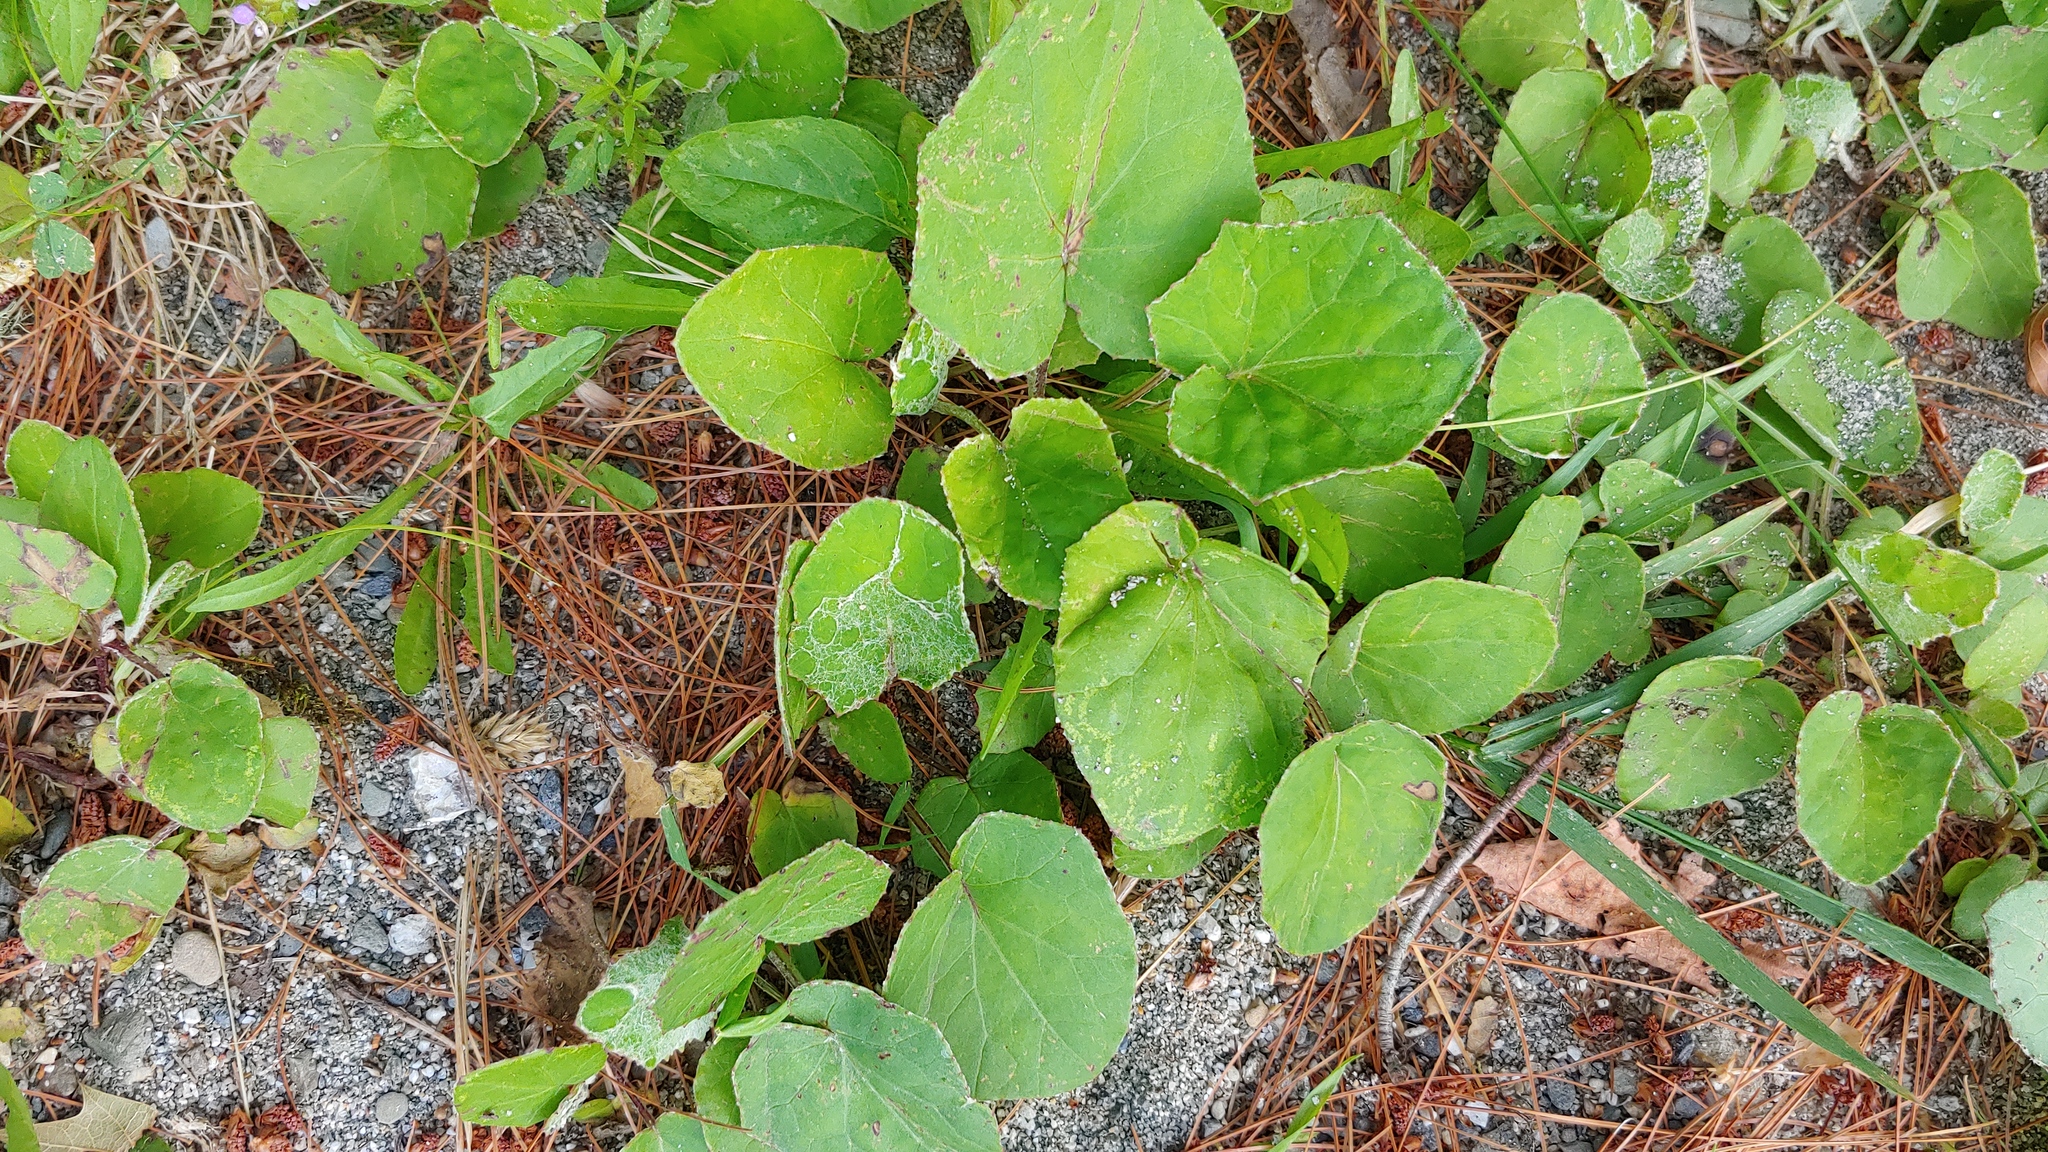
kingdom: Plantae
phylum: Tracheophyta
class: Magnoliopsida
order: Asterales
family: Asteraceae
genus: Tussilago
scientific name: Tussilago farfara
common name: Coltsfoot
